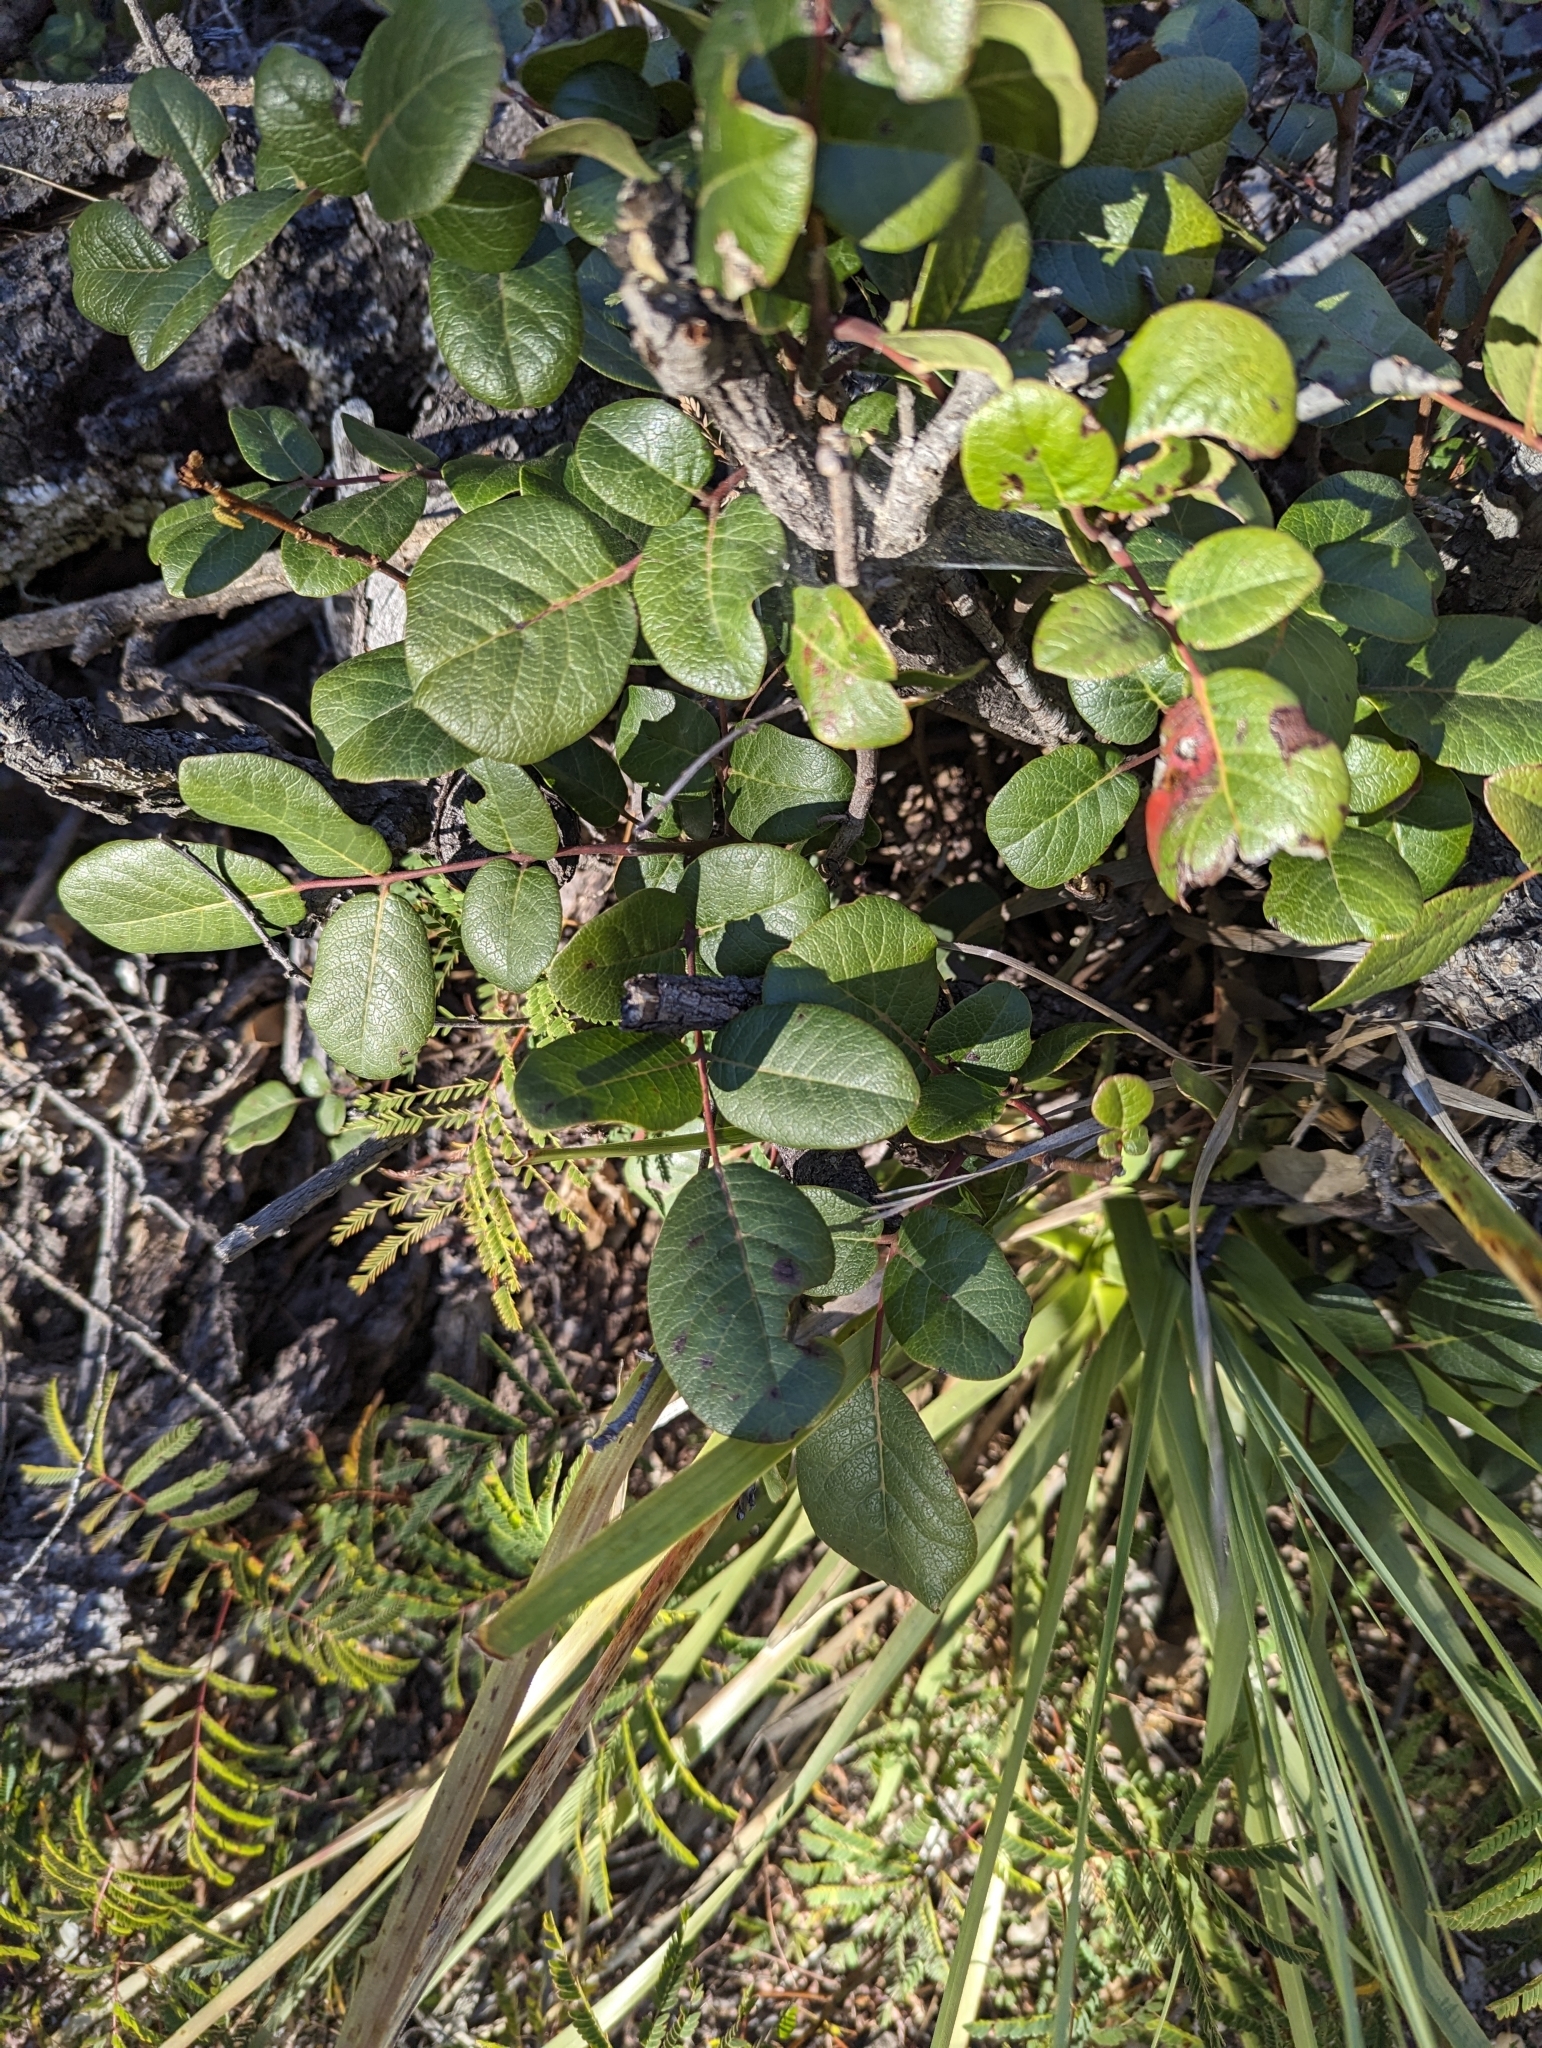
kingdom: Plantae
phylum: Tracheophyta
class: Magnoliopsida
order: Sapindales
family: Anacardiaceae
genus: Rhus
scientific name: Rhus tepetate
